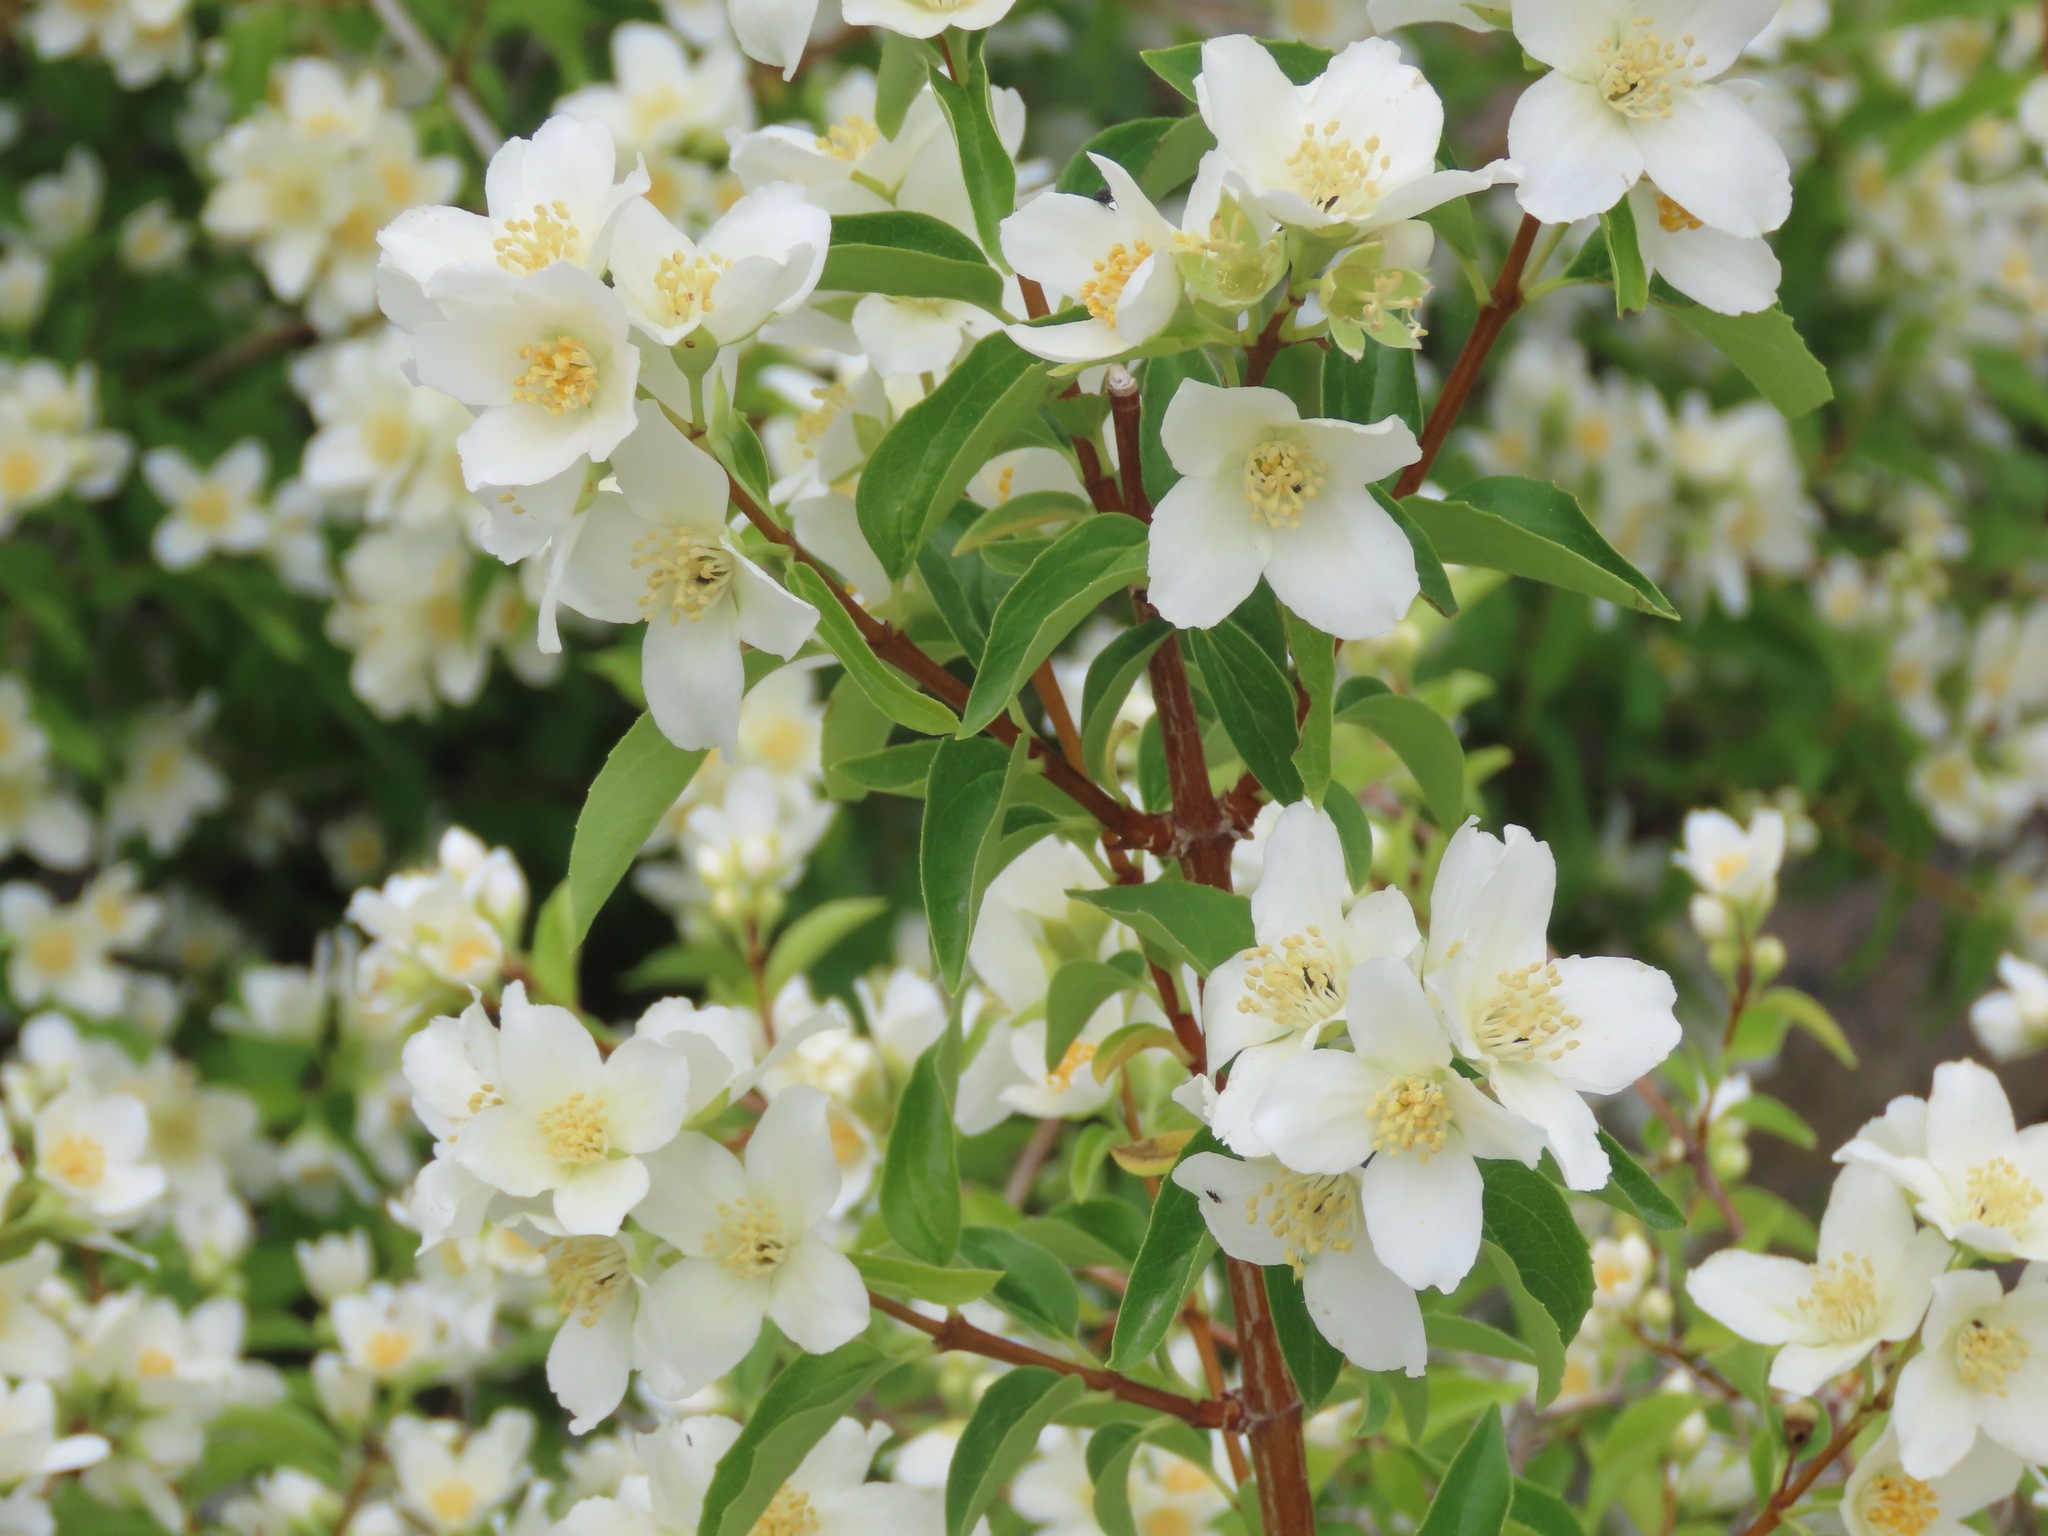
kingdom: Plantae
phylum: Tracheophyta
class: Magnoliopsida
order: Cornales
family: Hydrangeaceae
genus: Philadelphus
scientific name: Philadelphus lewisii
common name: Lewis's mock orange
